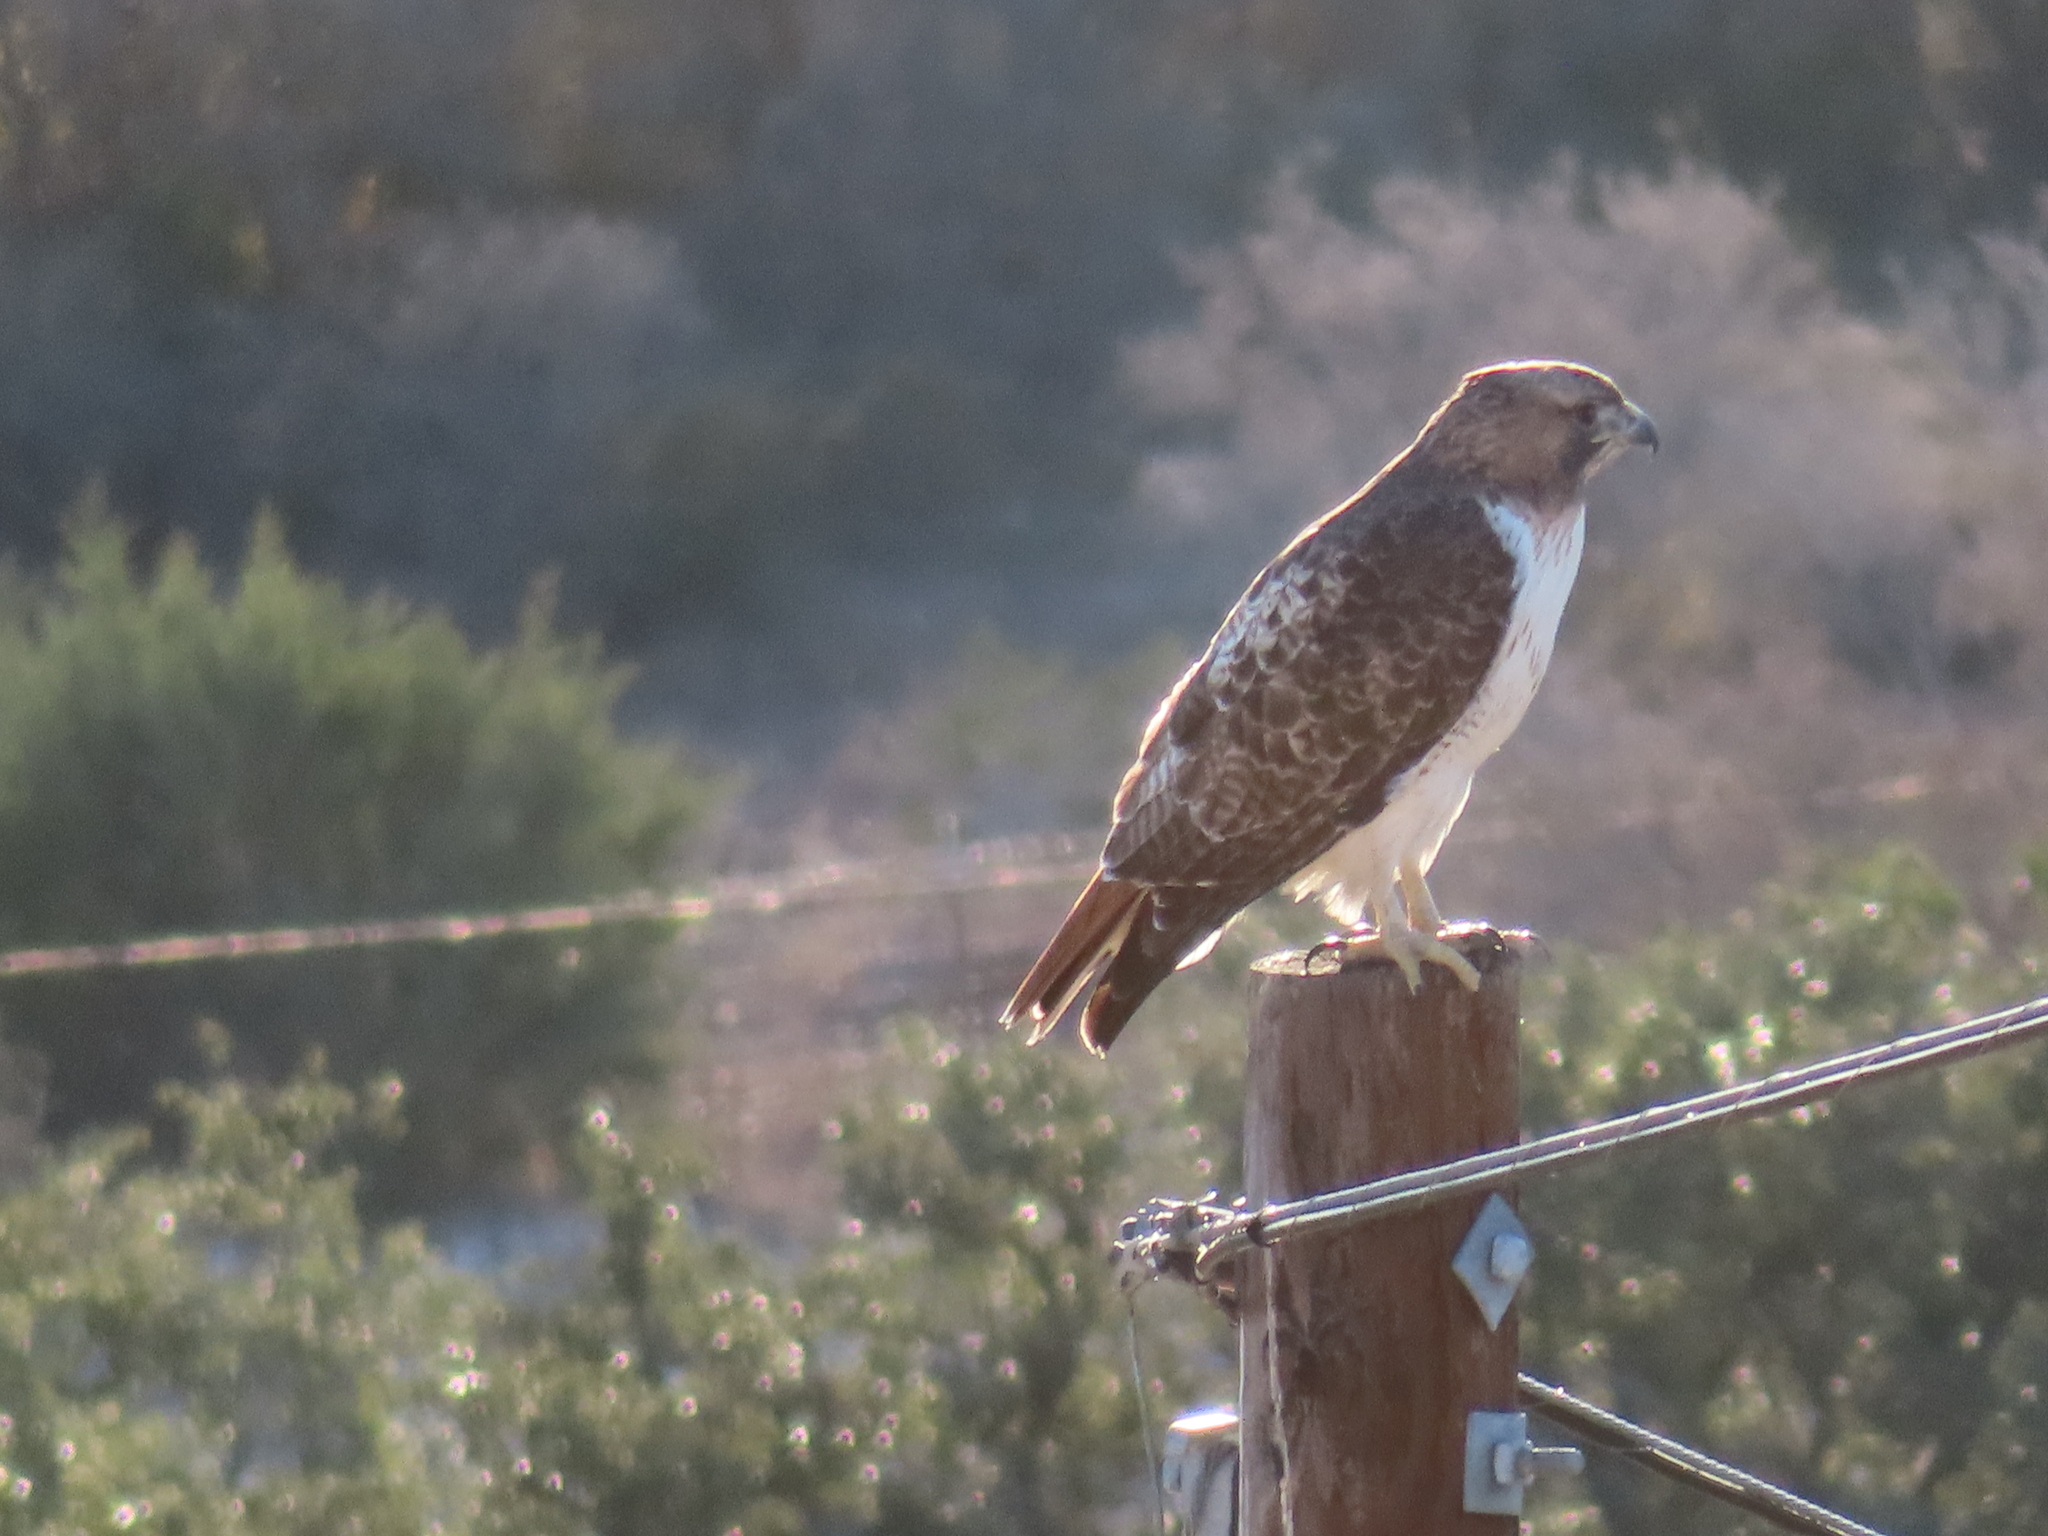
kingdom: Animalia
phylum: Chordata
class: Aves
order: Accipitriformes
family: Accipitridae
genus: Buteo
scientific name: Buteo jamaicensis
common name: Red-tailed hawk
